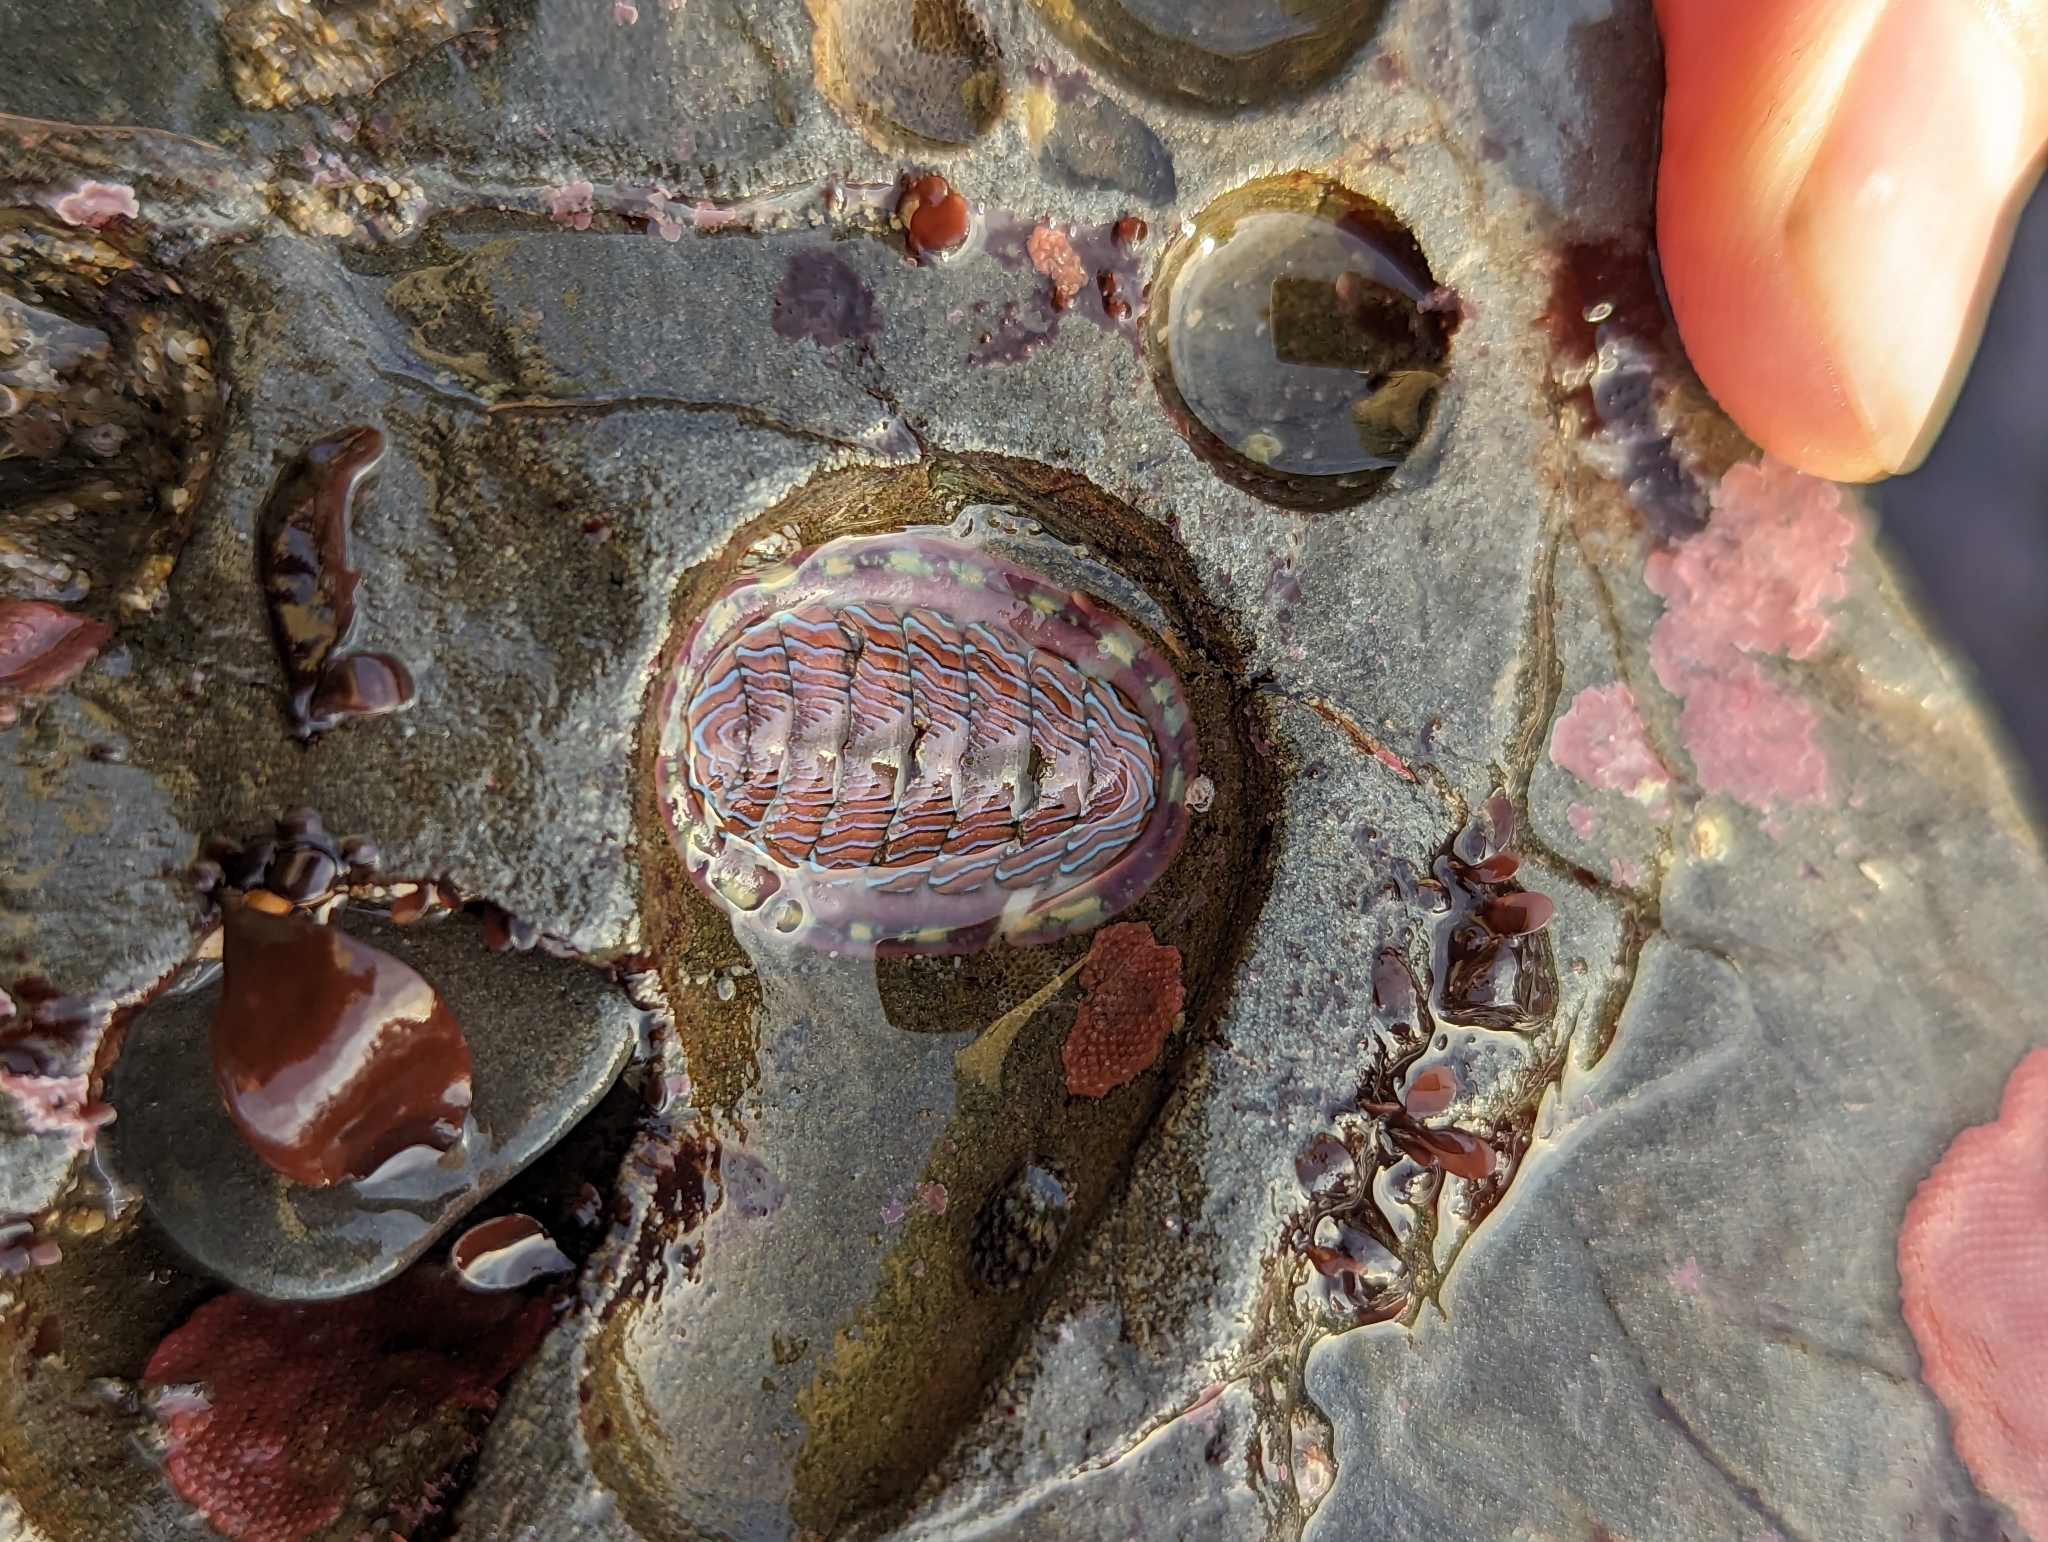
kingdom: Animalia
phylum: Mollusca
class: Polyplacophora
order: Chitonida
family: Tonicellidae
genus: Tonicella
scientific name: Tonicella lineata
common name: Lined chiton
